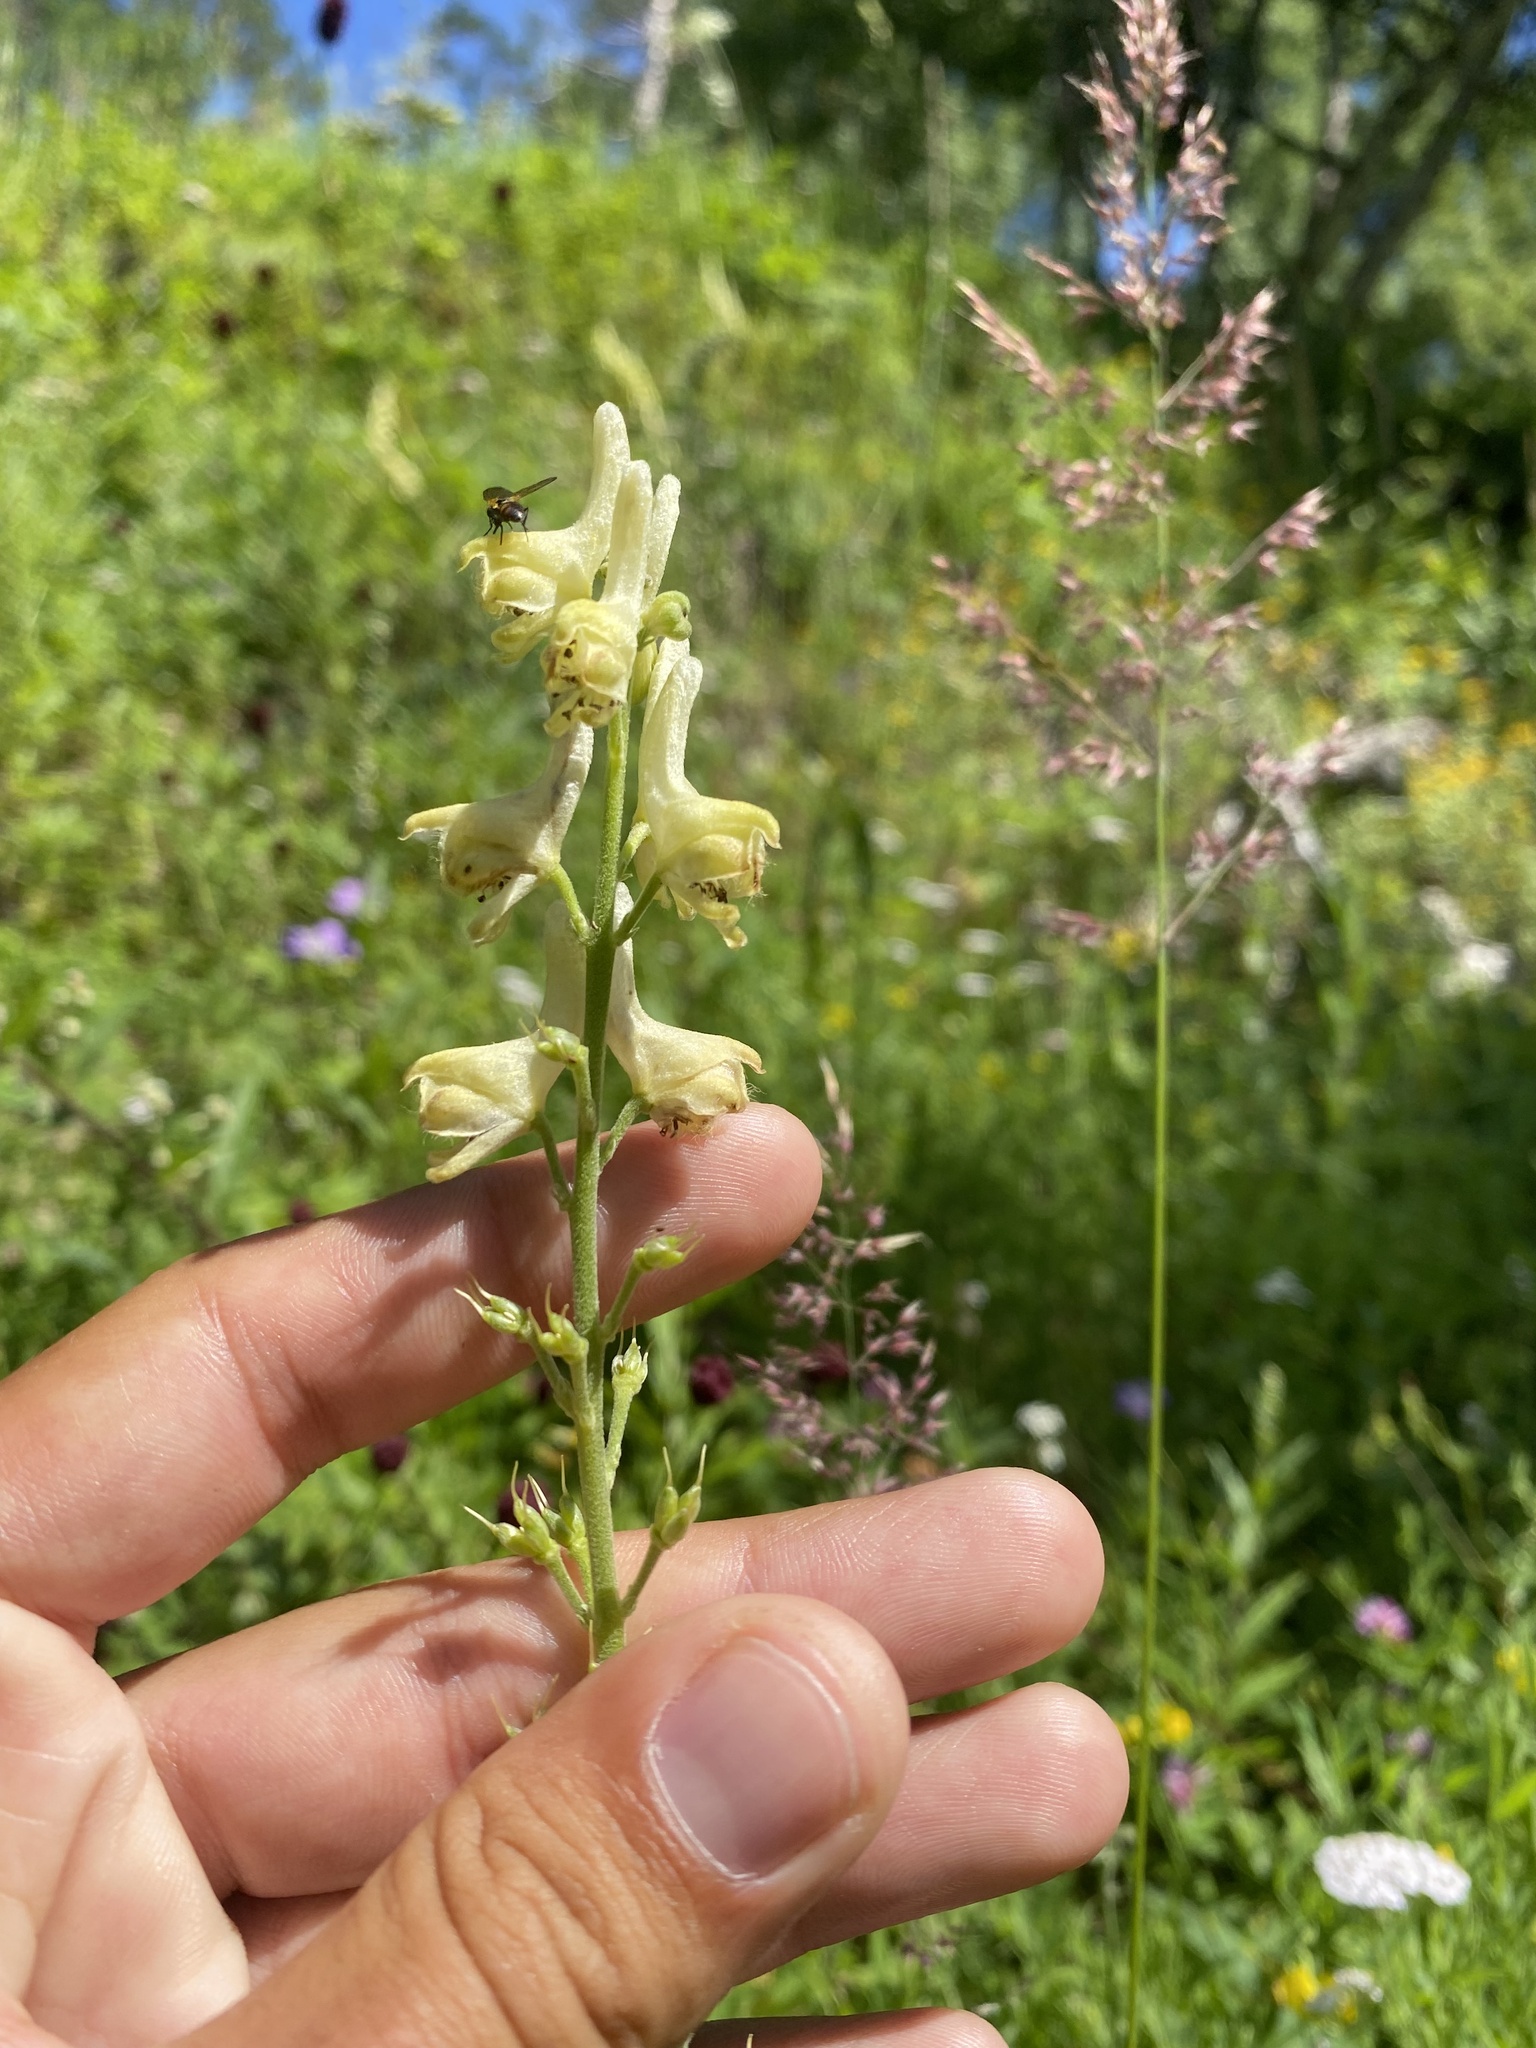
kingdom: Plantae
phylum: Tracheophyta
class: Magnoliopsida
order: Ranunculales
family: Ranunculaceae
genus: Aconitum
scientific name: Aconitum barbatum
